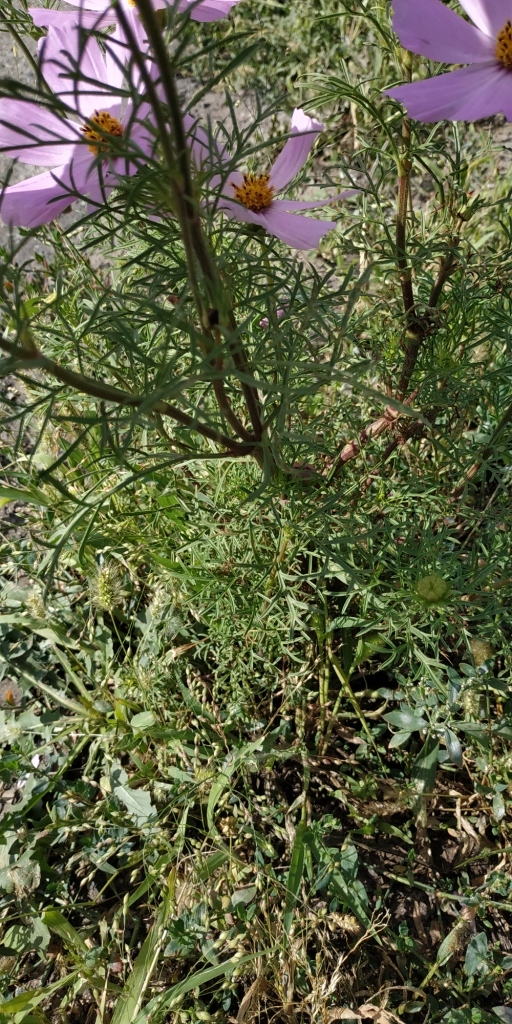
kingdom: Plantae
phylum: Tracheophyta
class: Magnoliopsida
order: Asterales
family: Asteraceae
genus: Cosmos
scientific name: Cosmos bipinnatus
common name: Garden cosmos
